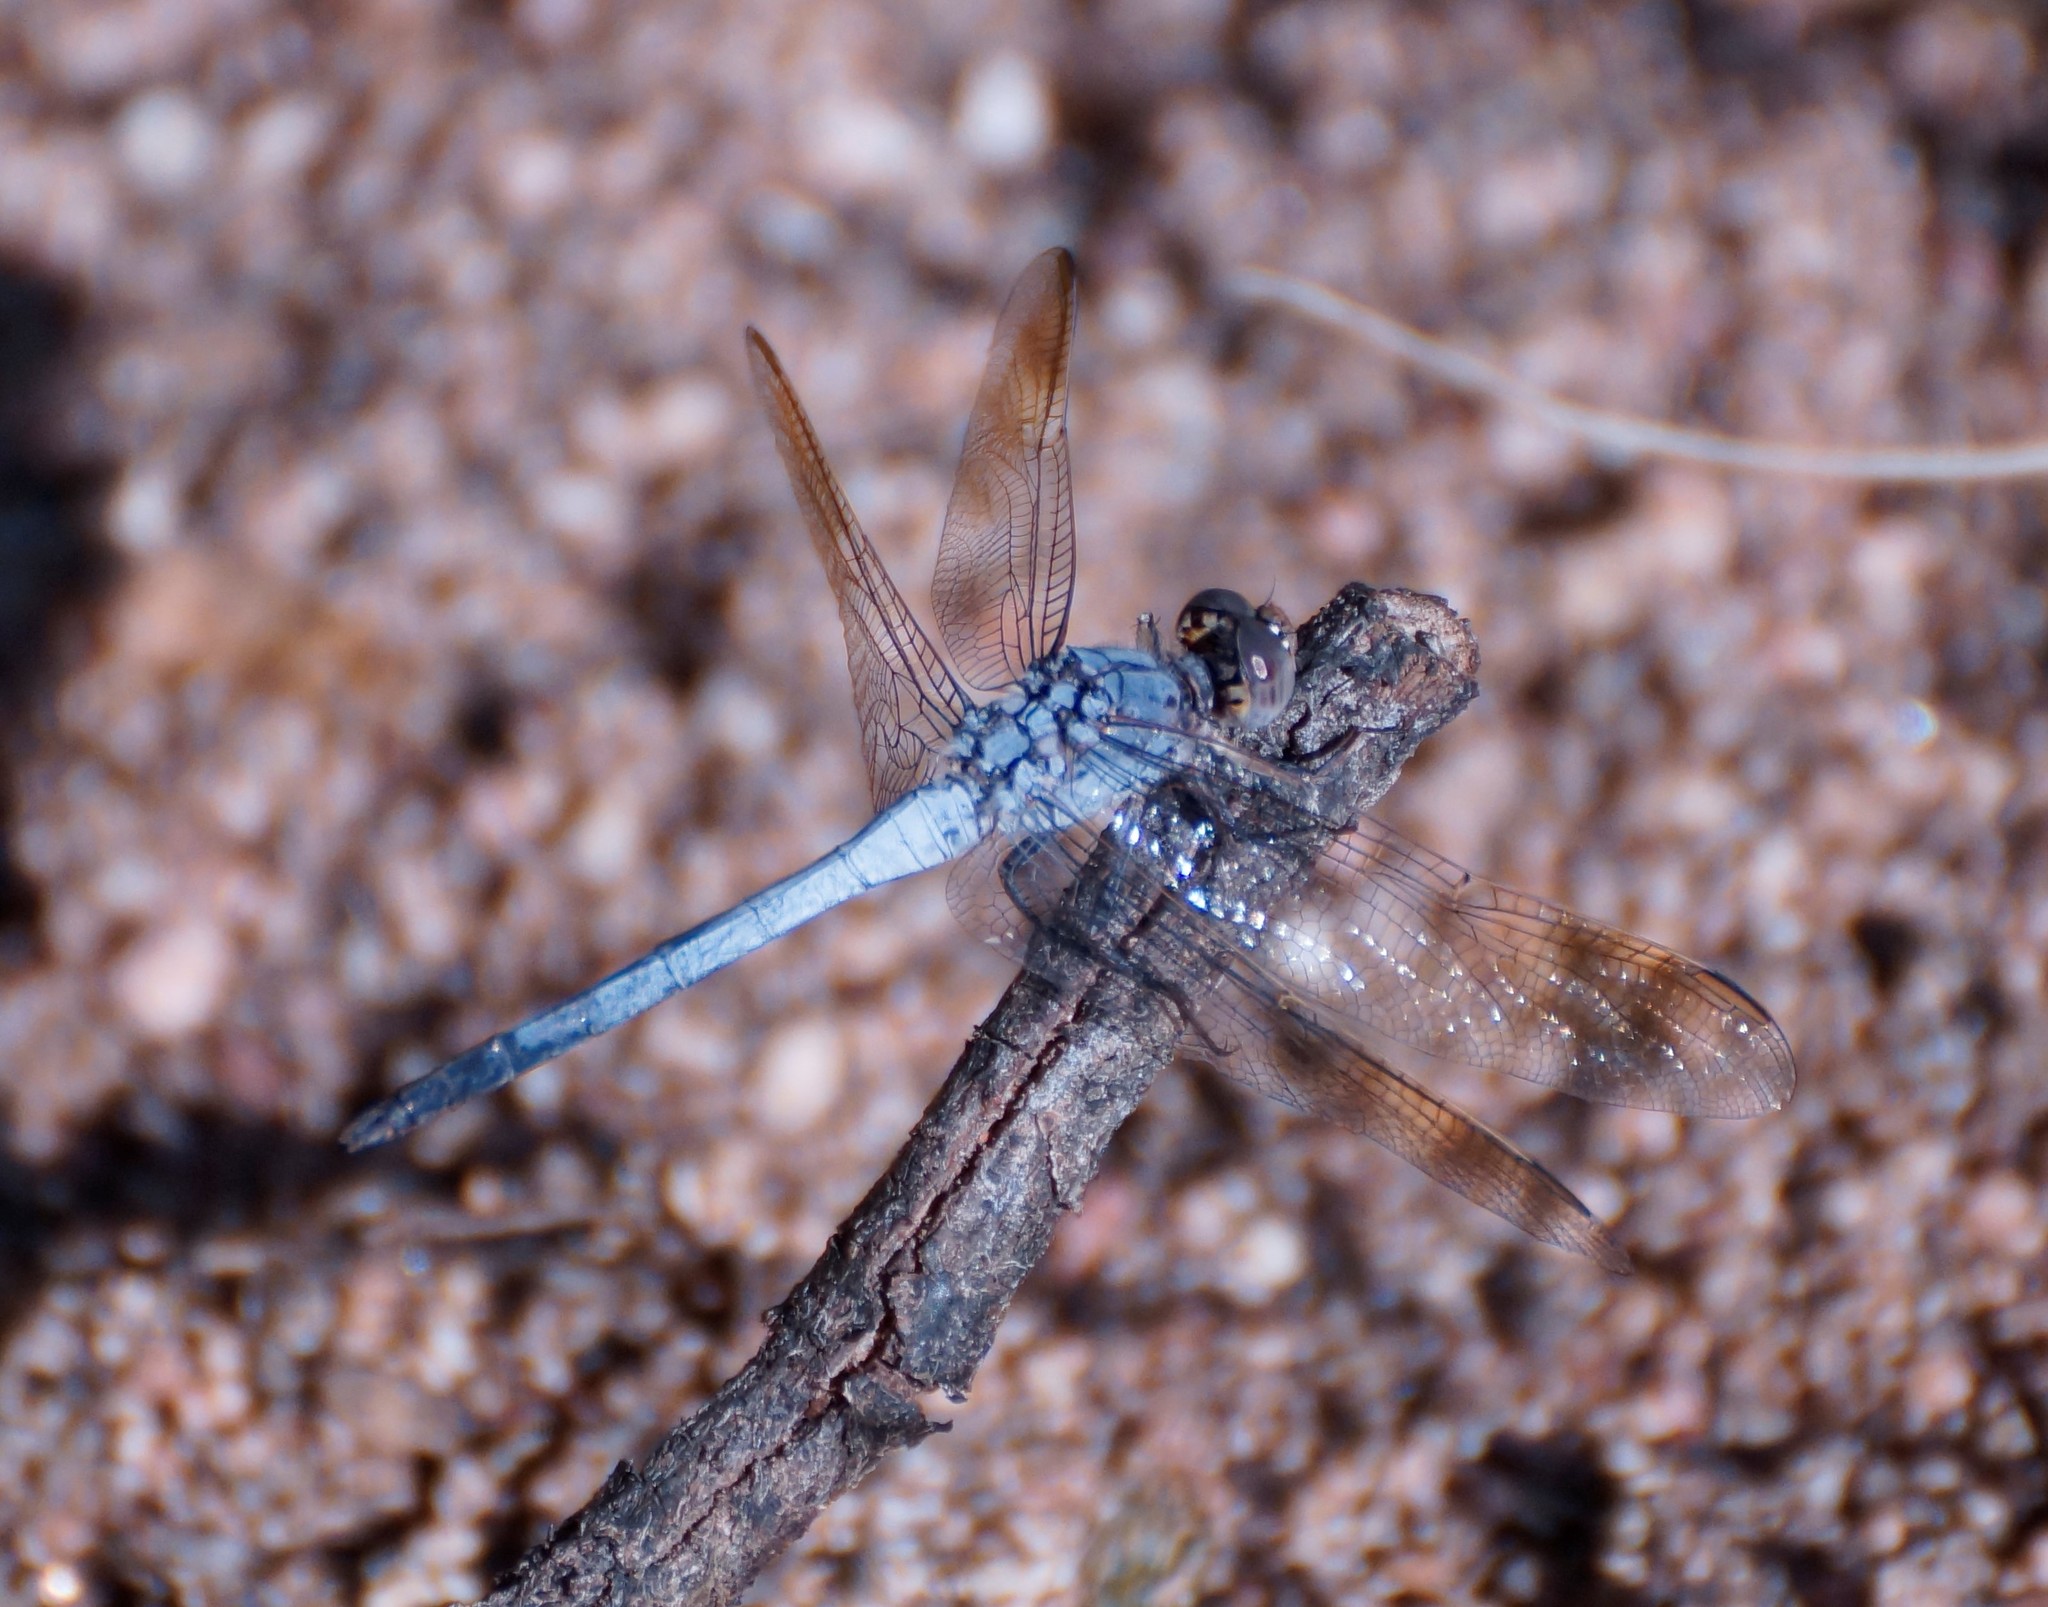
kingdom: Animalia
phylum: Arthropoda
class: Insecta
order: Odonata
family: Libellulidae
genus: Orthetrum
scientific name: Orthetrum caledonicum
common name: Blue skimmer
